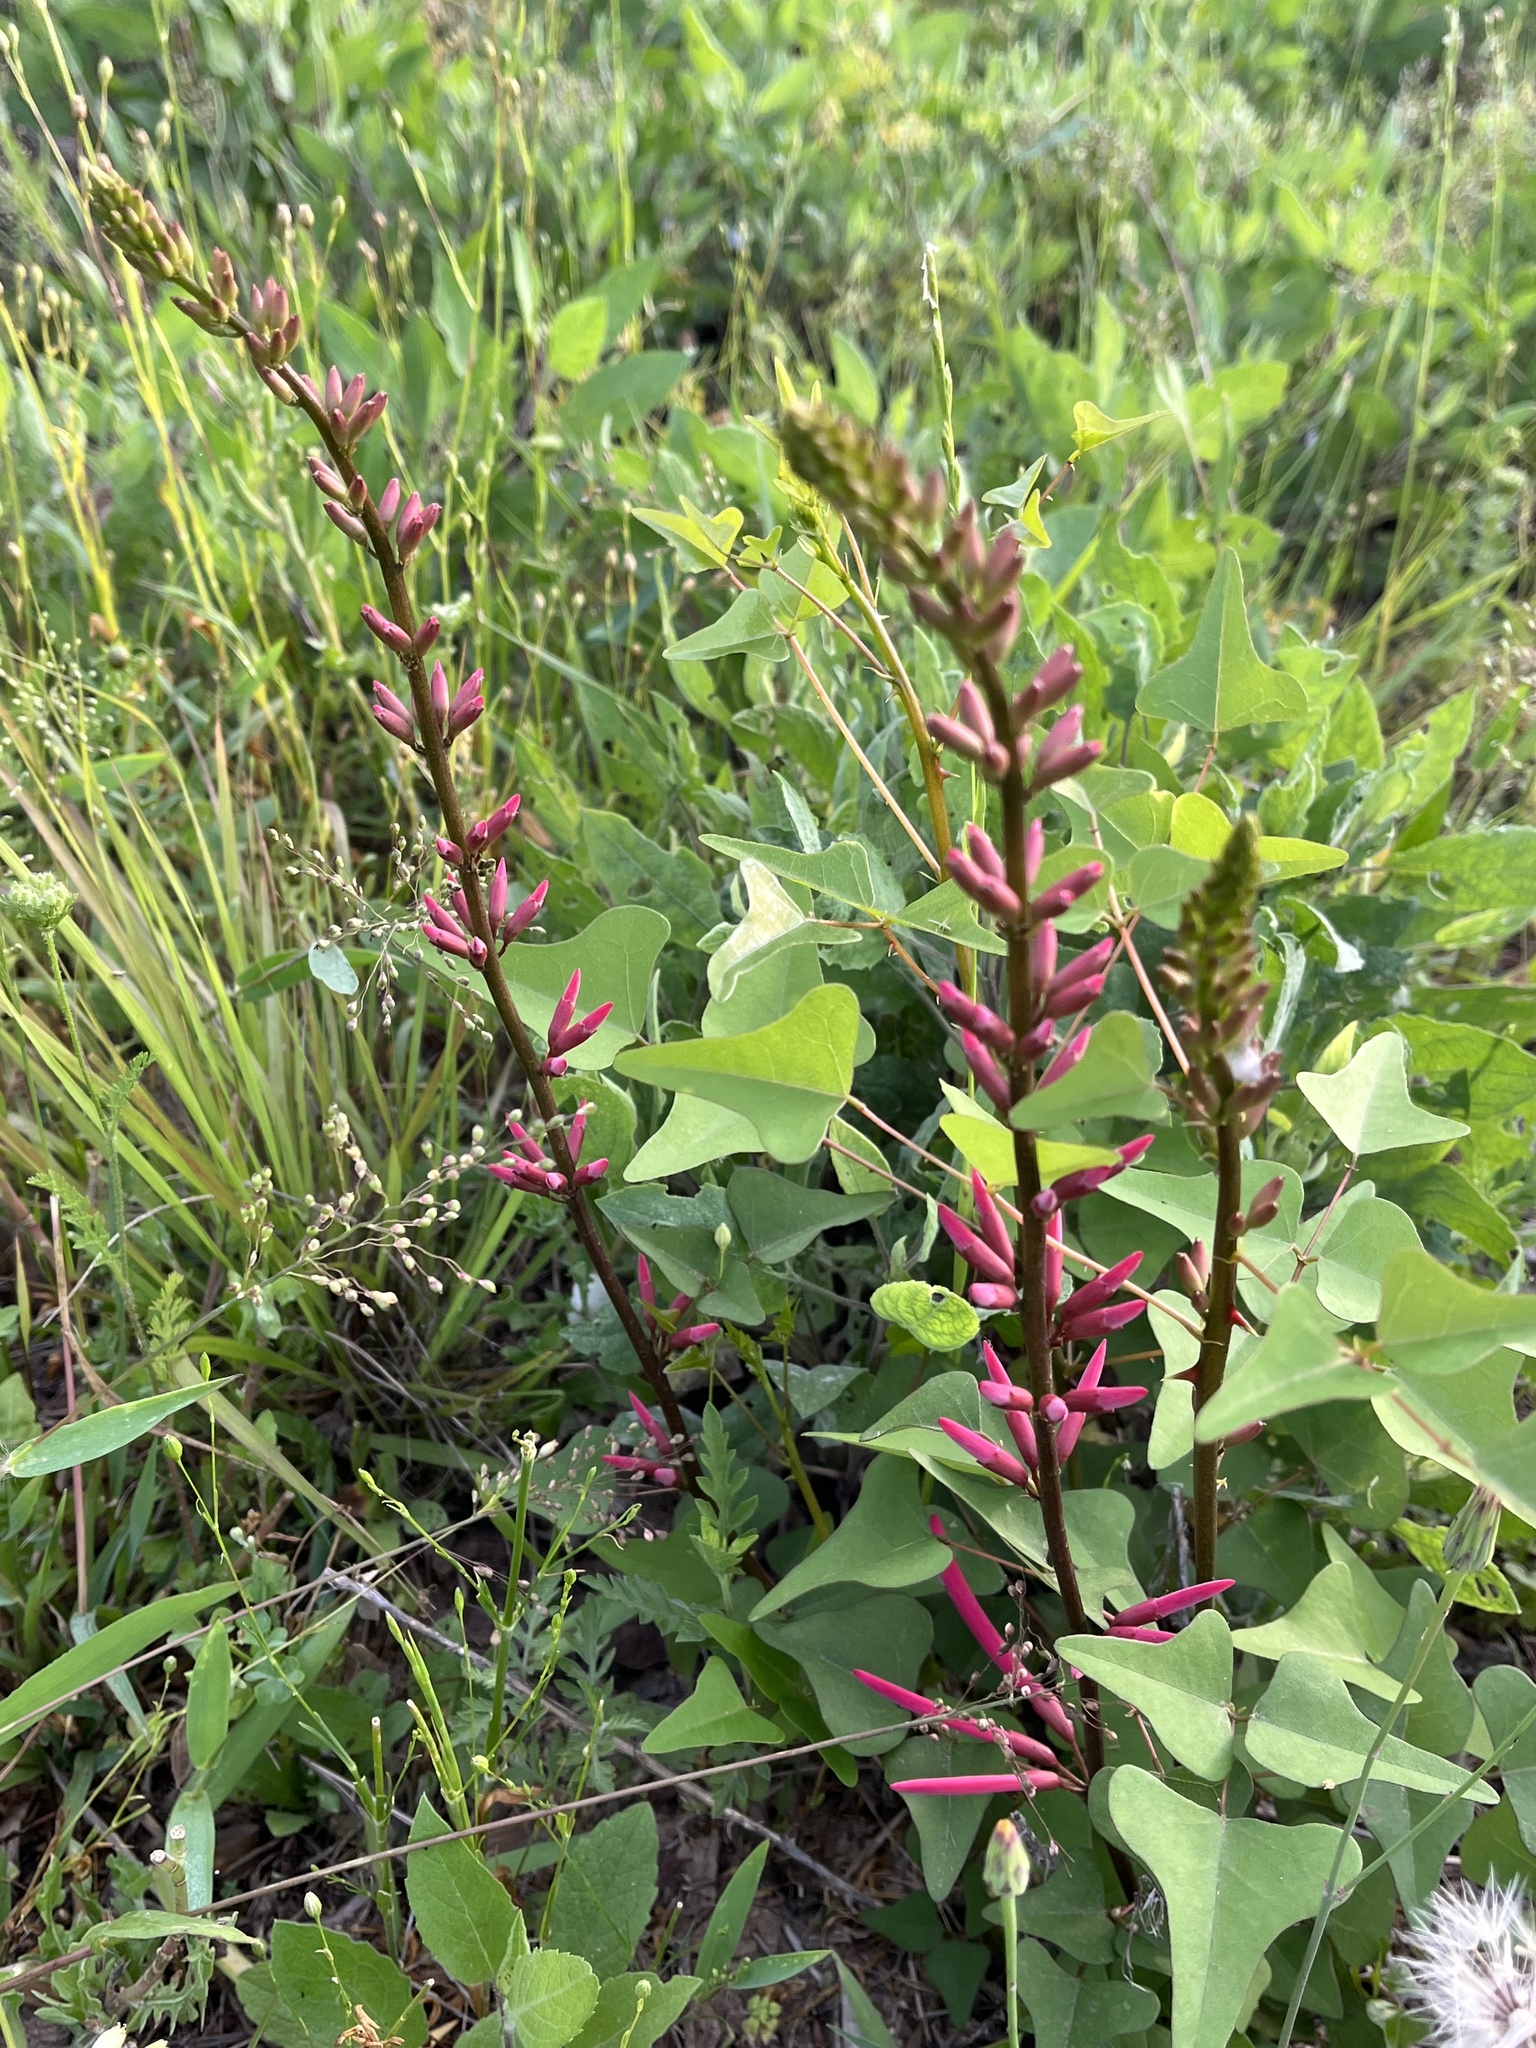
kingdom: Plantae
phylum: Tracheophyta
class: Magnoliopsida
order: Fabales
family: Fabaceae
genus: Erythrina
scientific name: Erythrina herbacea
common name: Coral-bean
